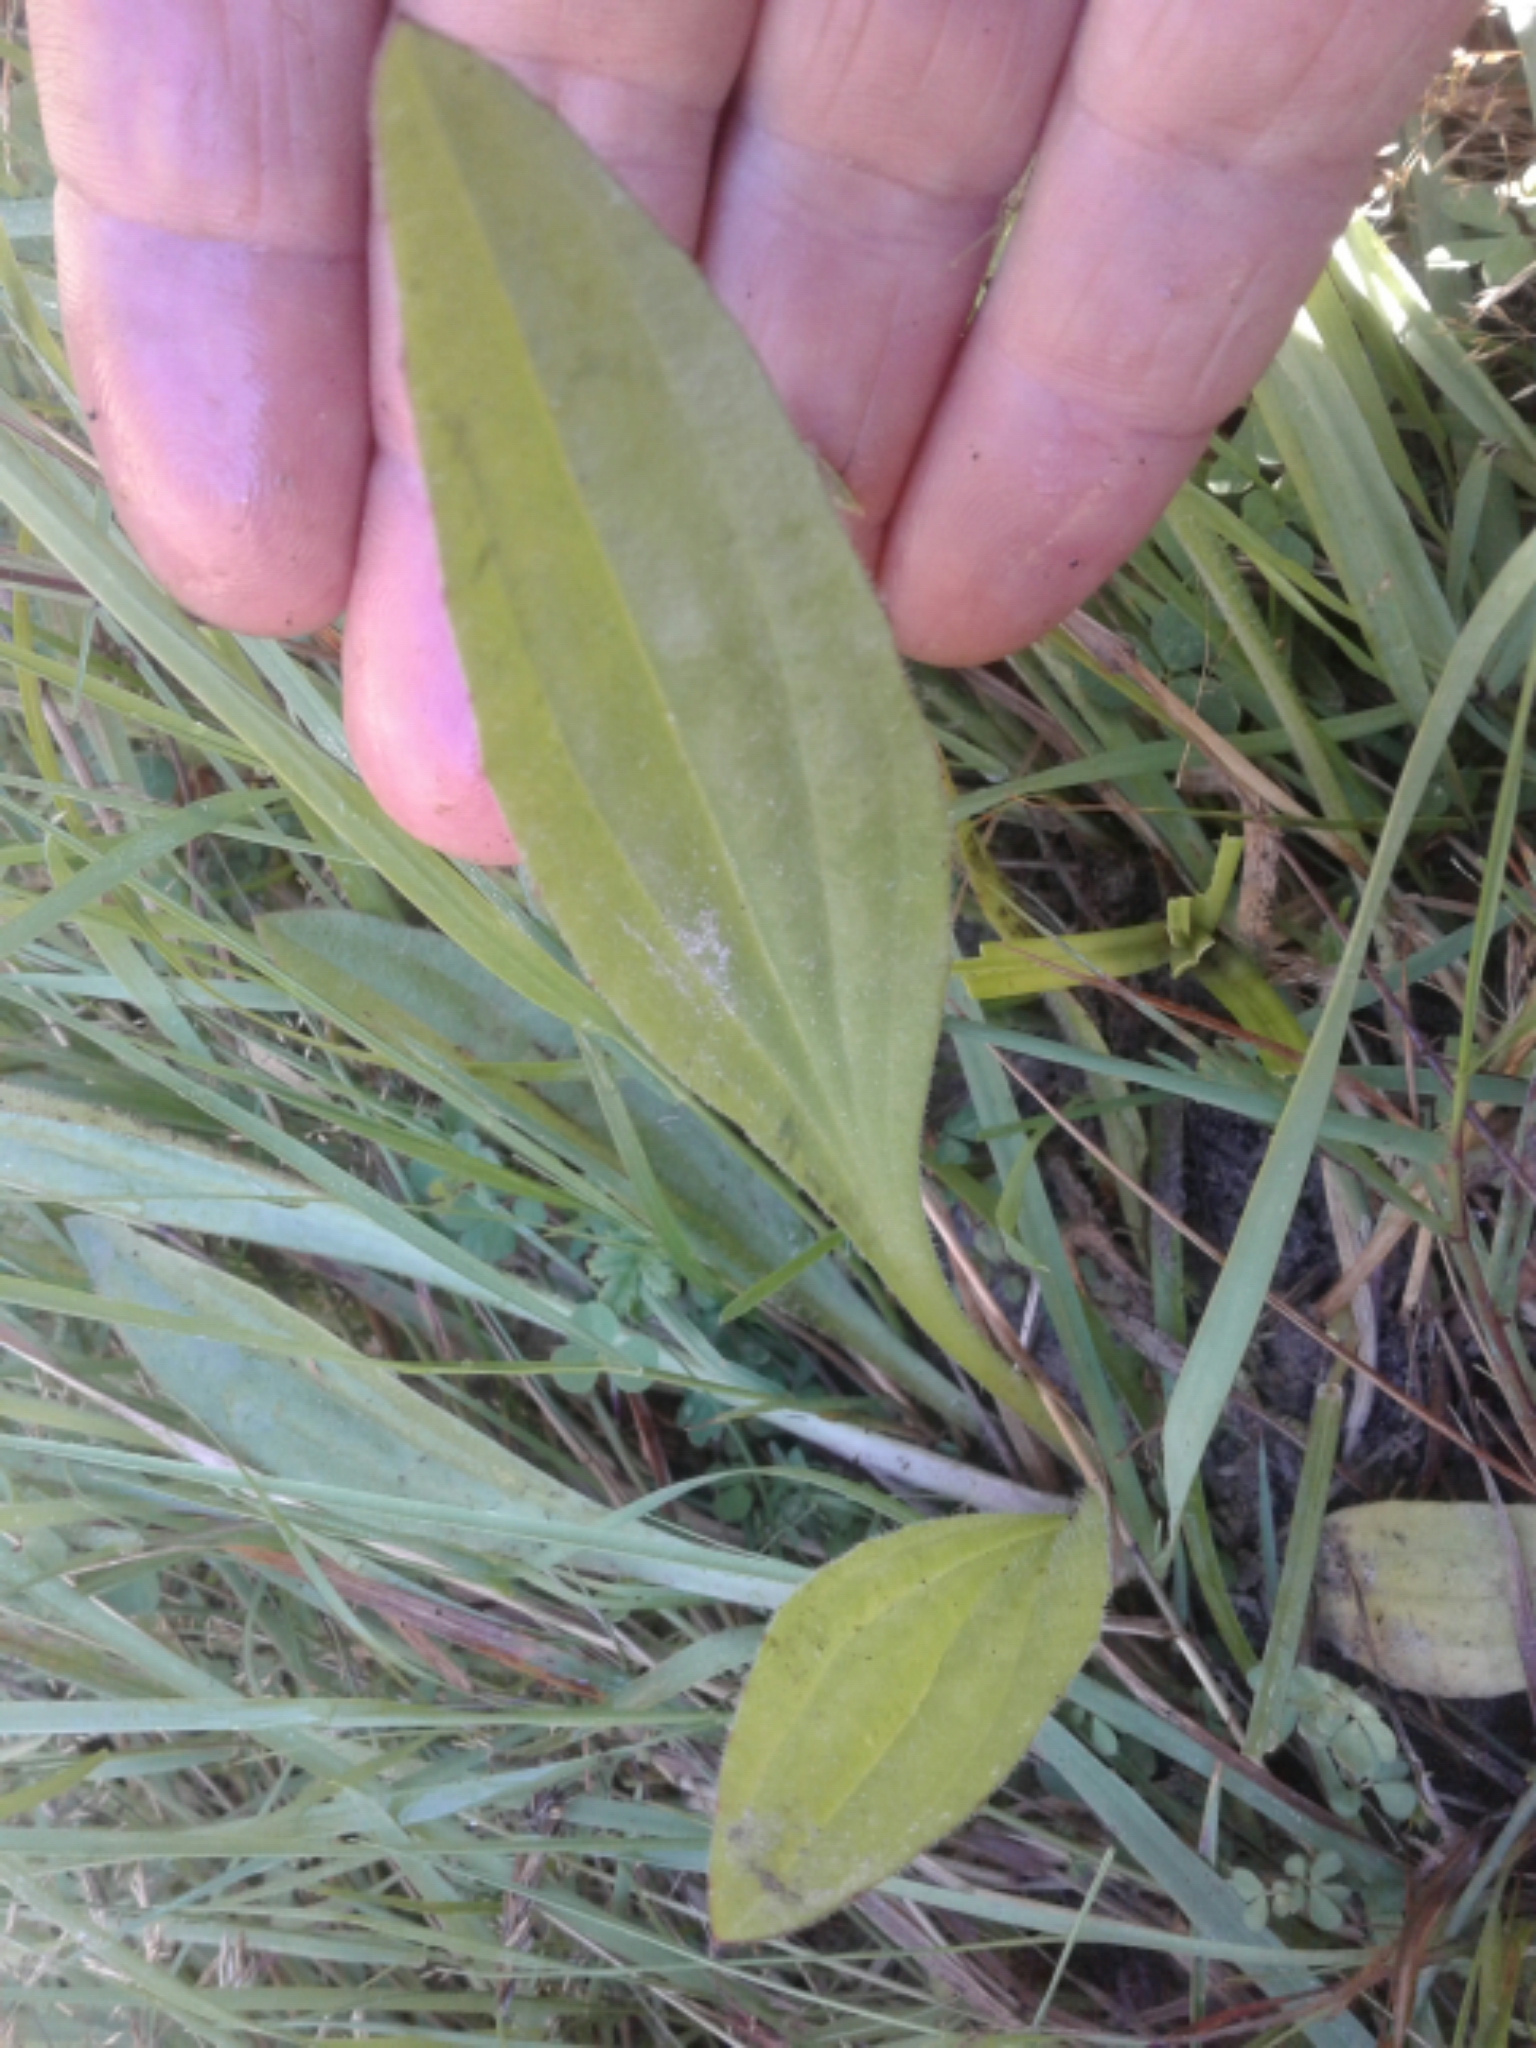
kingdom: Plantae
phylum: Tracheophyta
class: Magnoliopsida
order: Lamiales
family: Plantaginaceae
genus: Plantago
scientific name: Plantago
